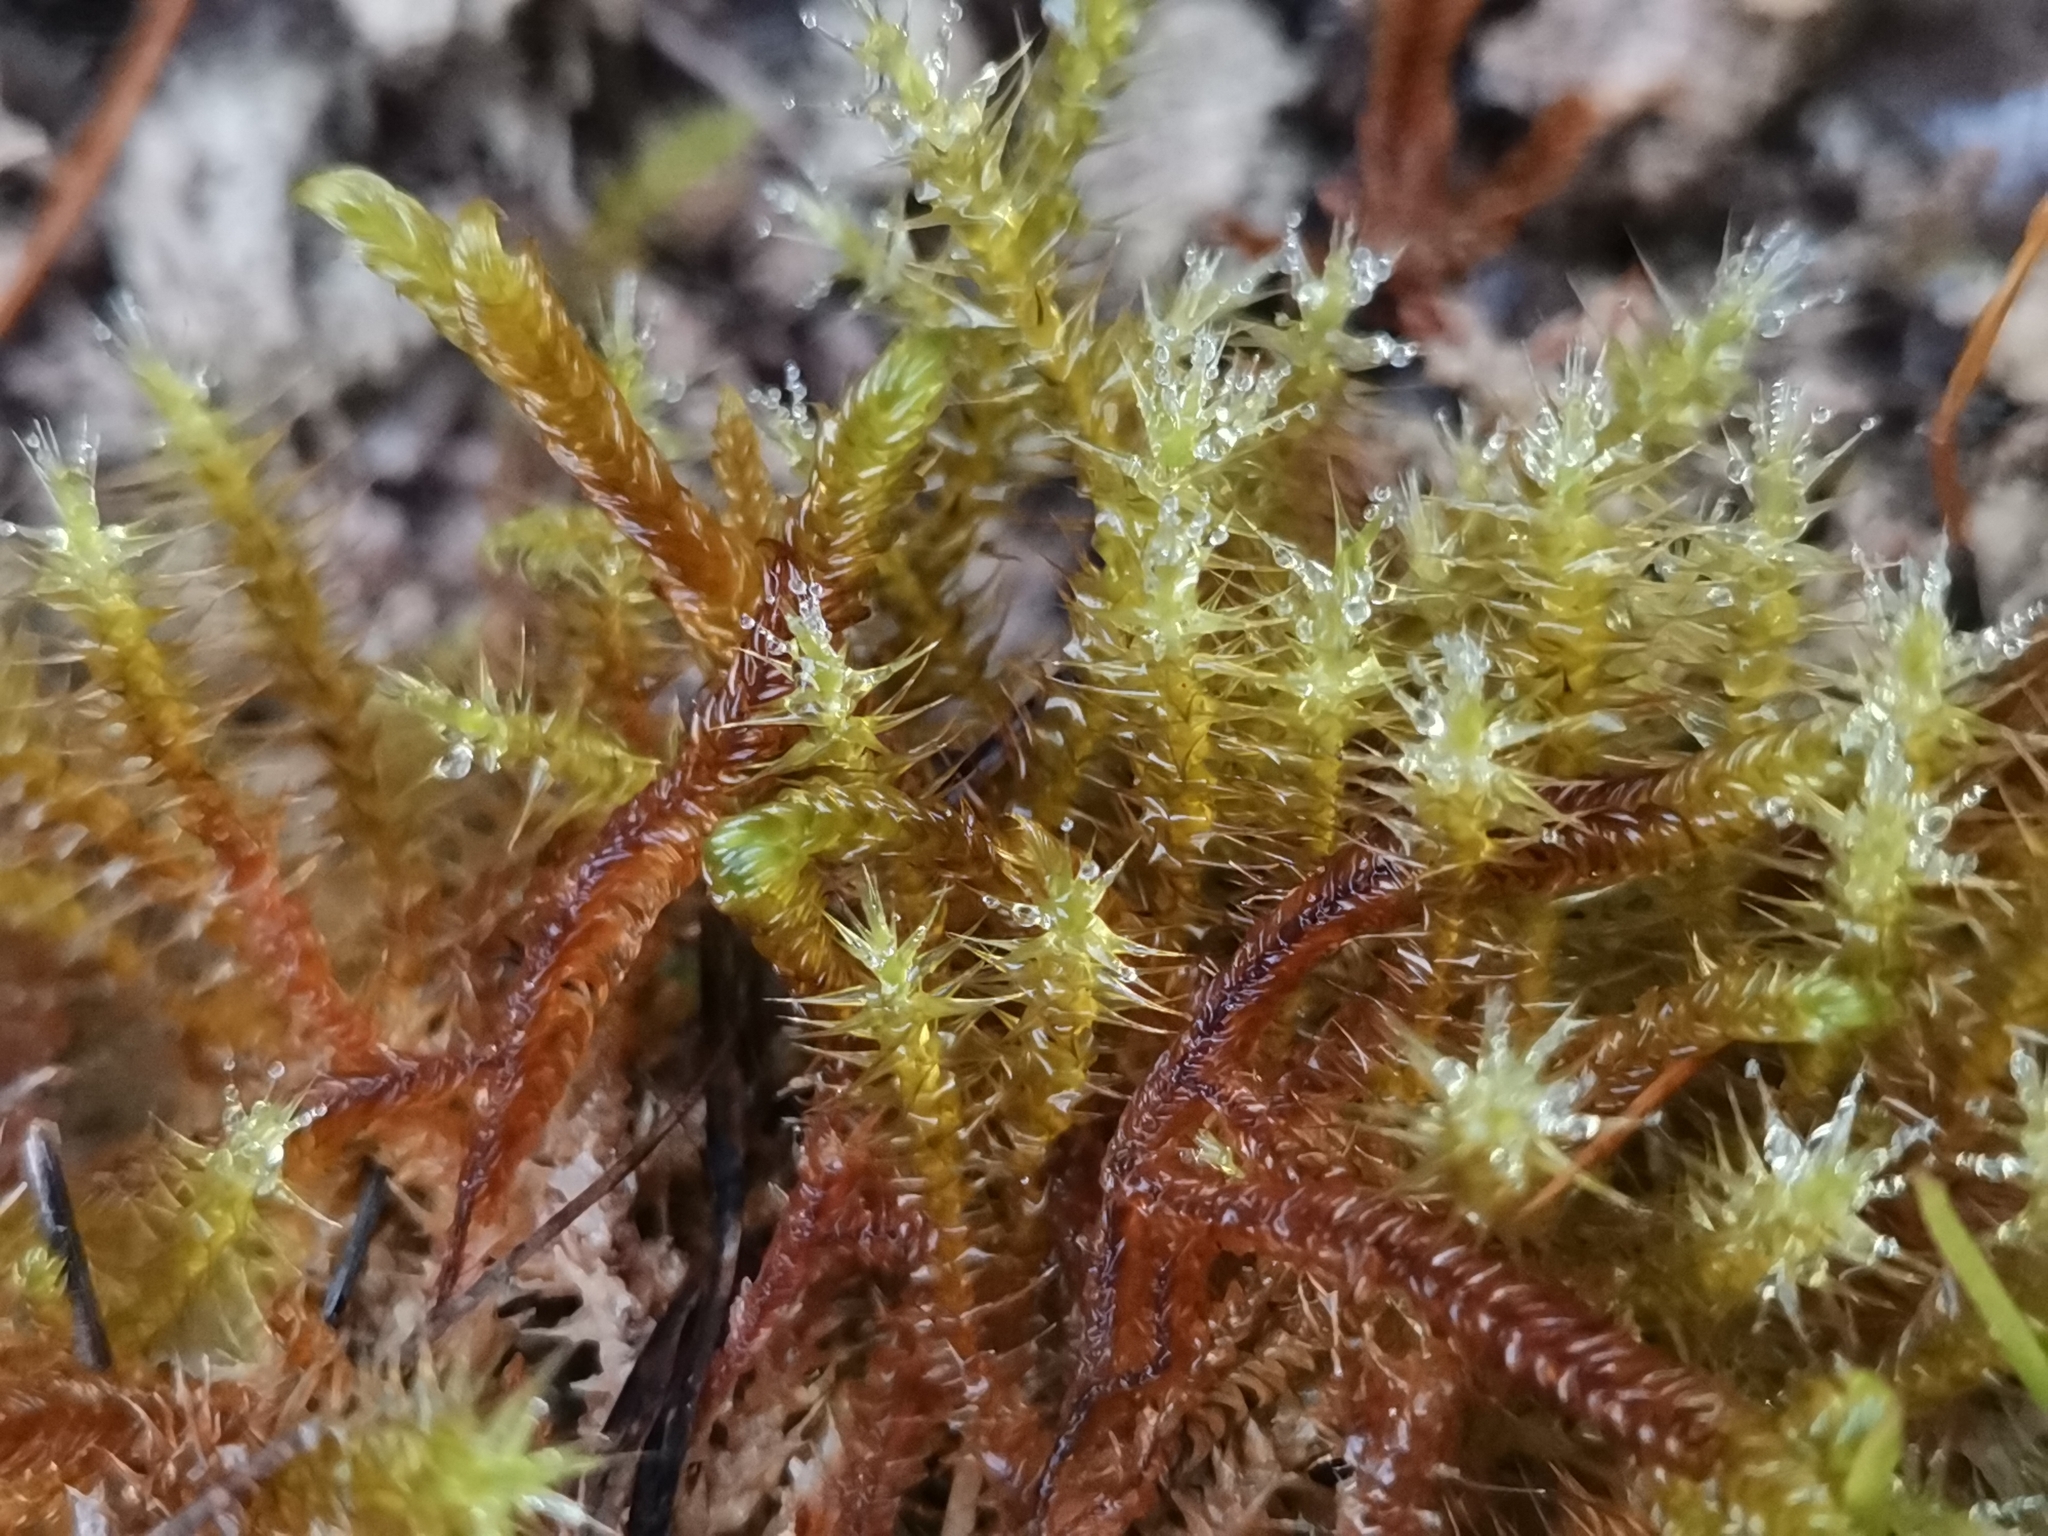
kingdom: Plantae
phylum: Bryophyta
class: Bryopsida
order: Hypnales
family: Amblystegiaceae
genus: Campylium
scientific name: Campylium stellatum
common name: Yellow starry fen moss
